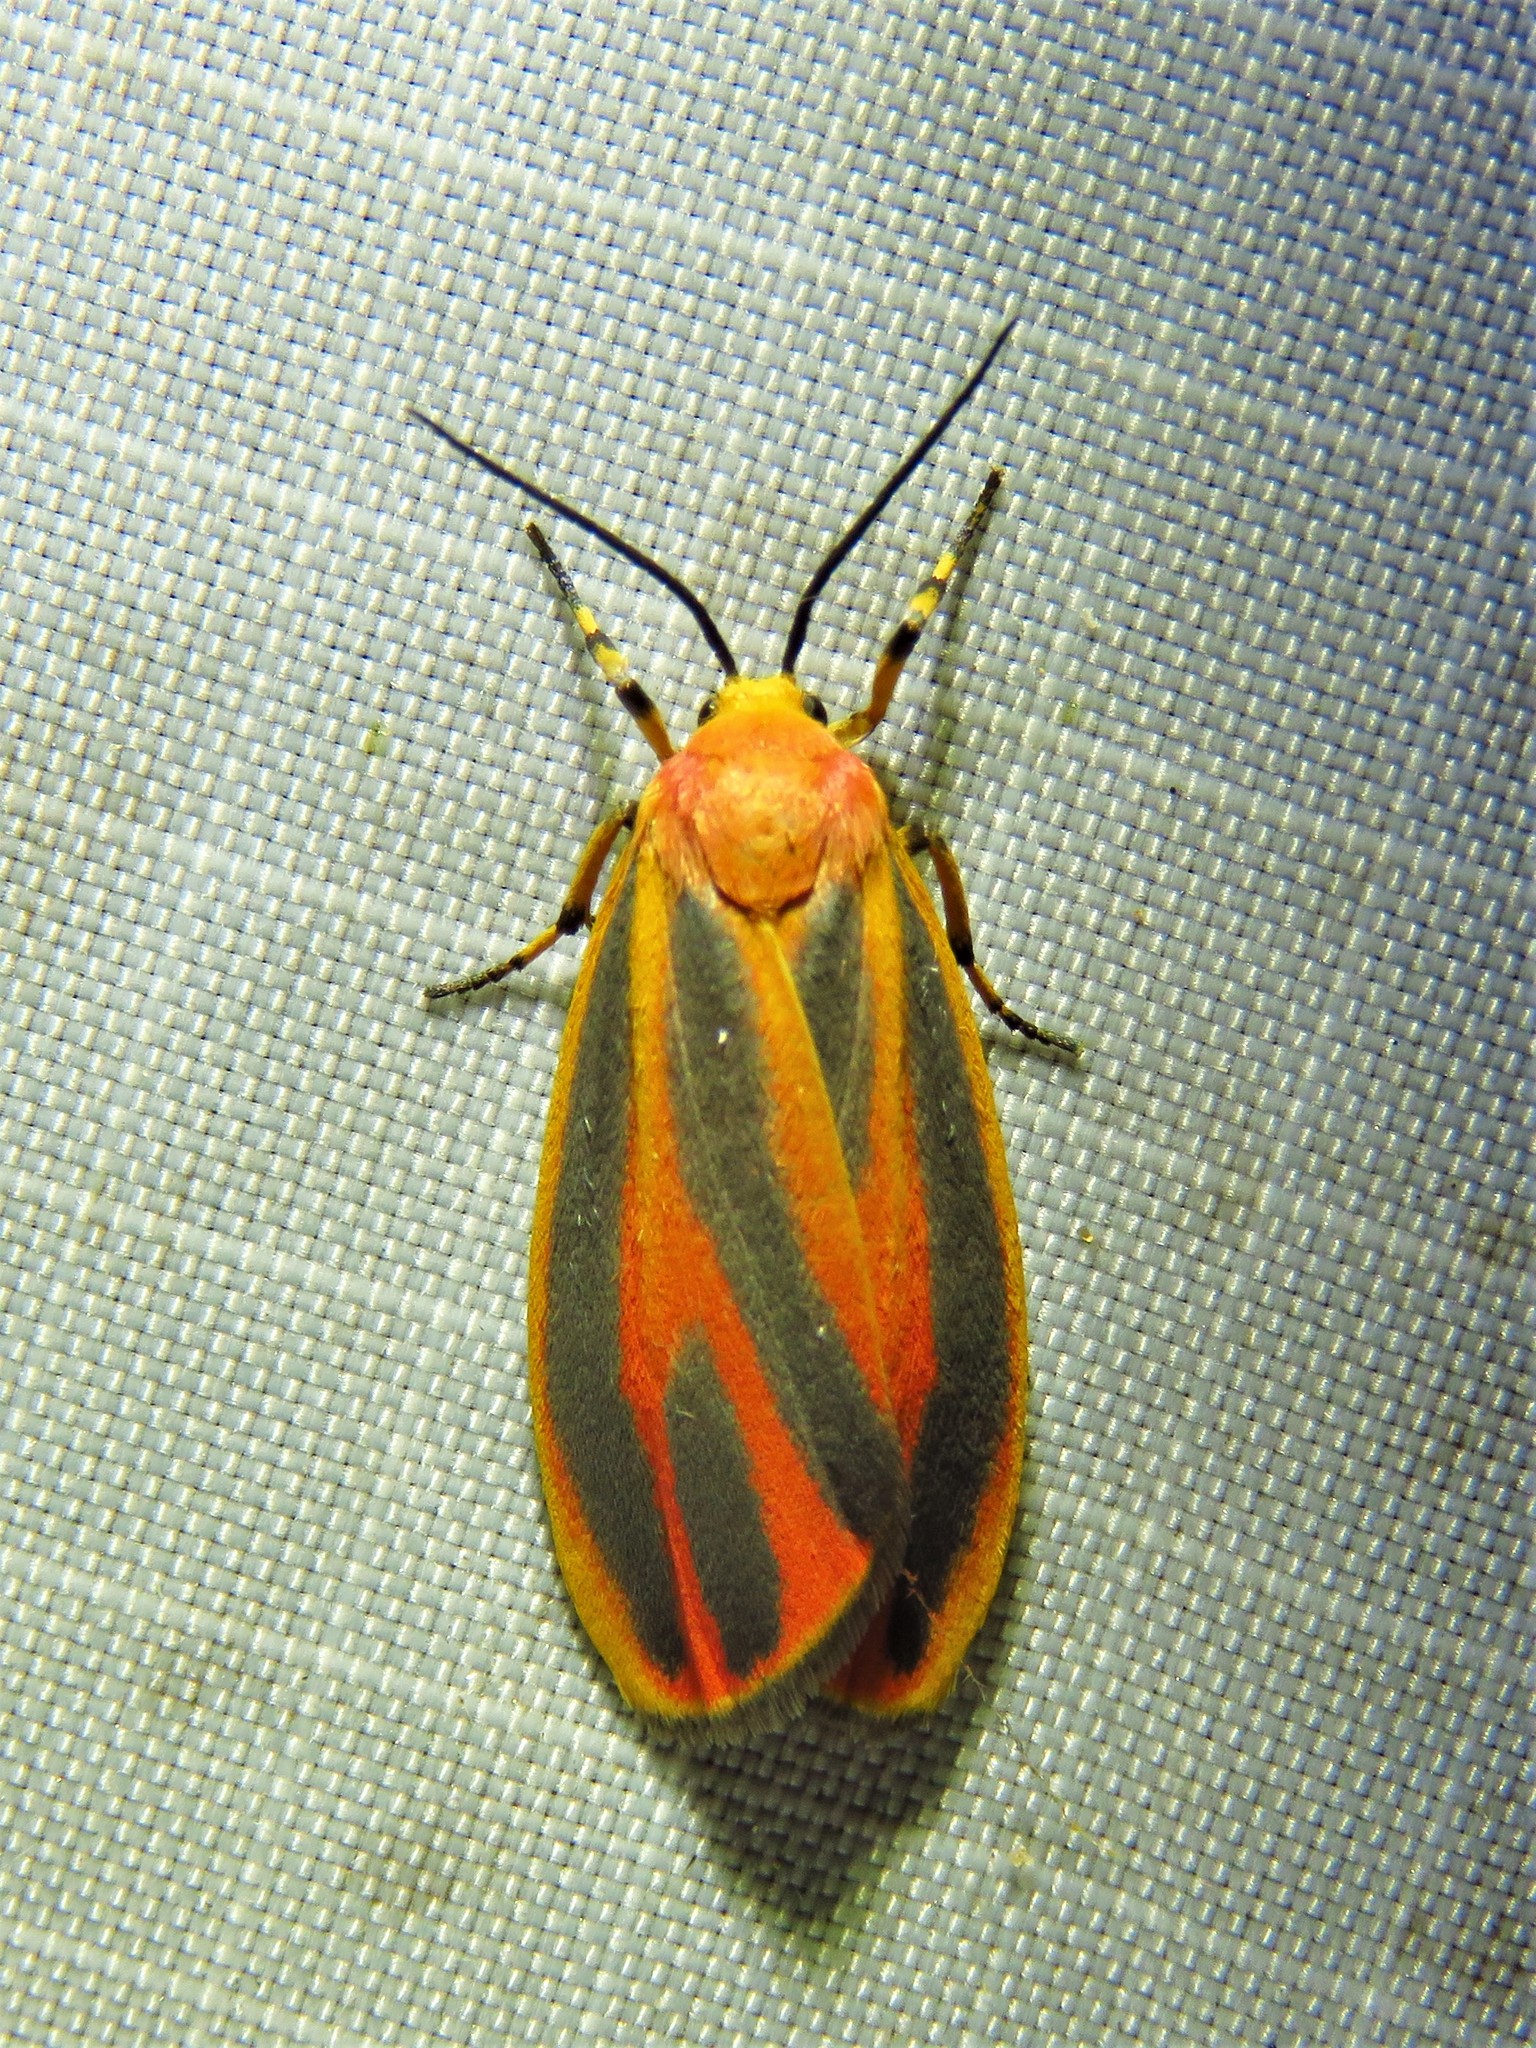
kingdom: Animalia
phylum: Arthropoda
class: Insecta
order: Lepidoptera
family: Erebidae
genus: Hypoprepia
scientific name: Hypoprepia fucosa
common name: Painted lichen moth
